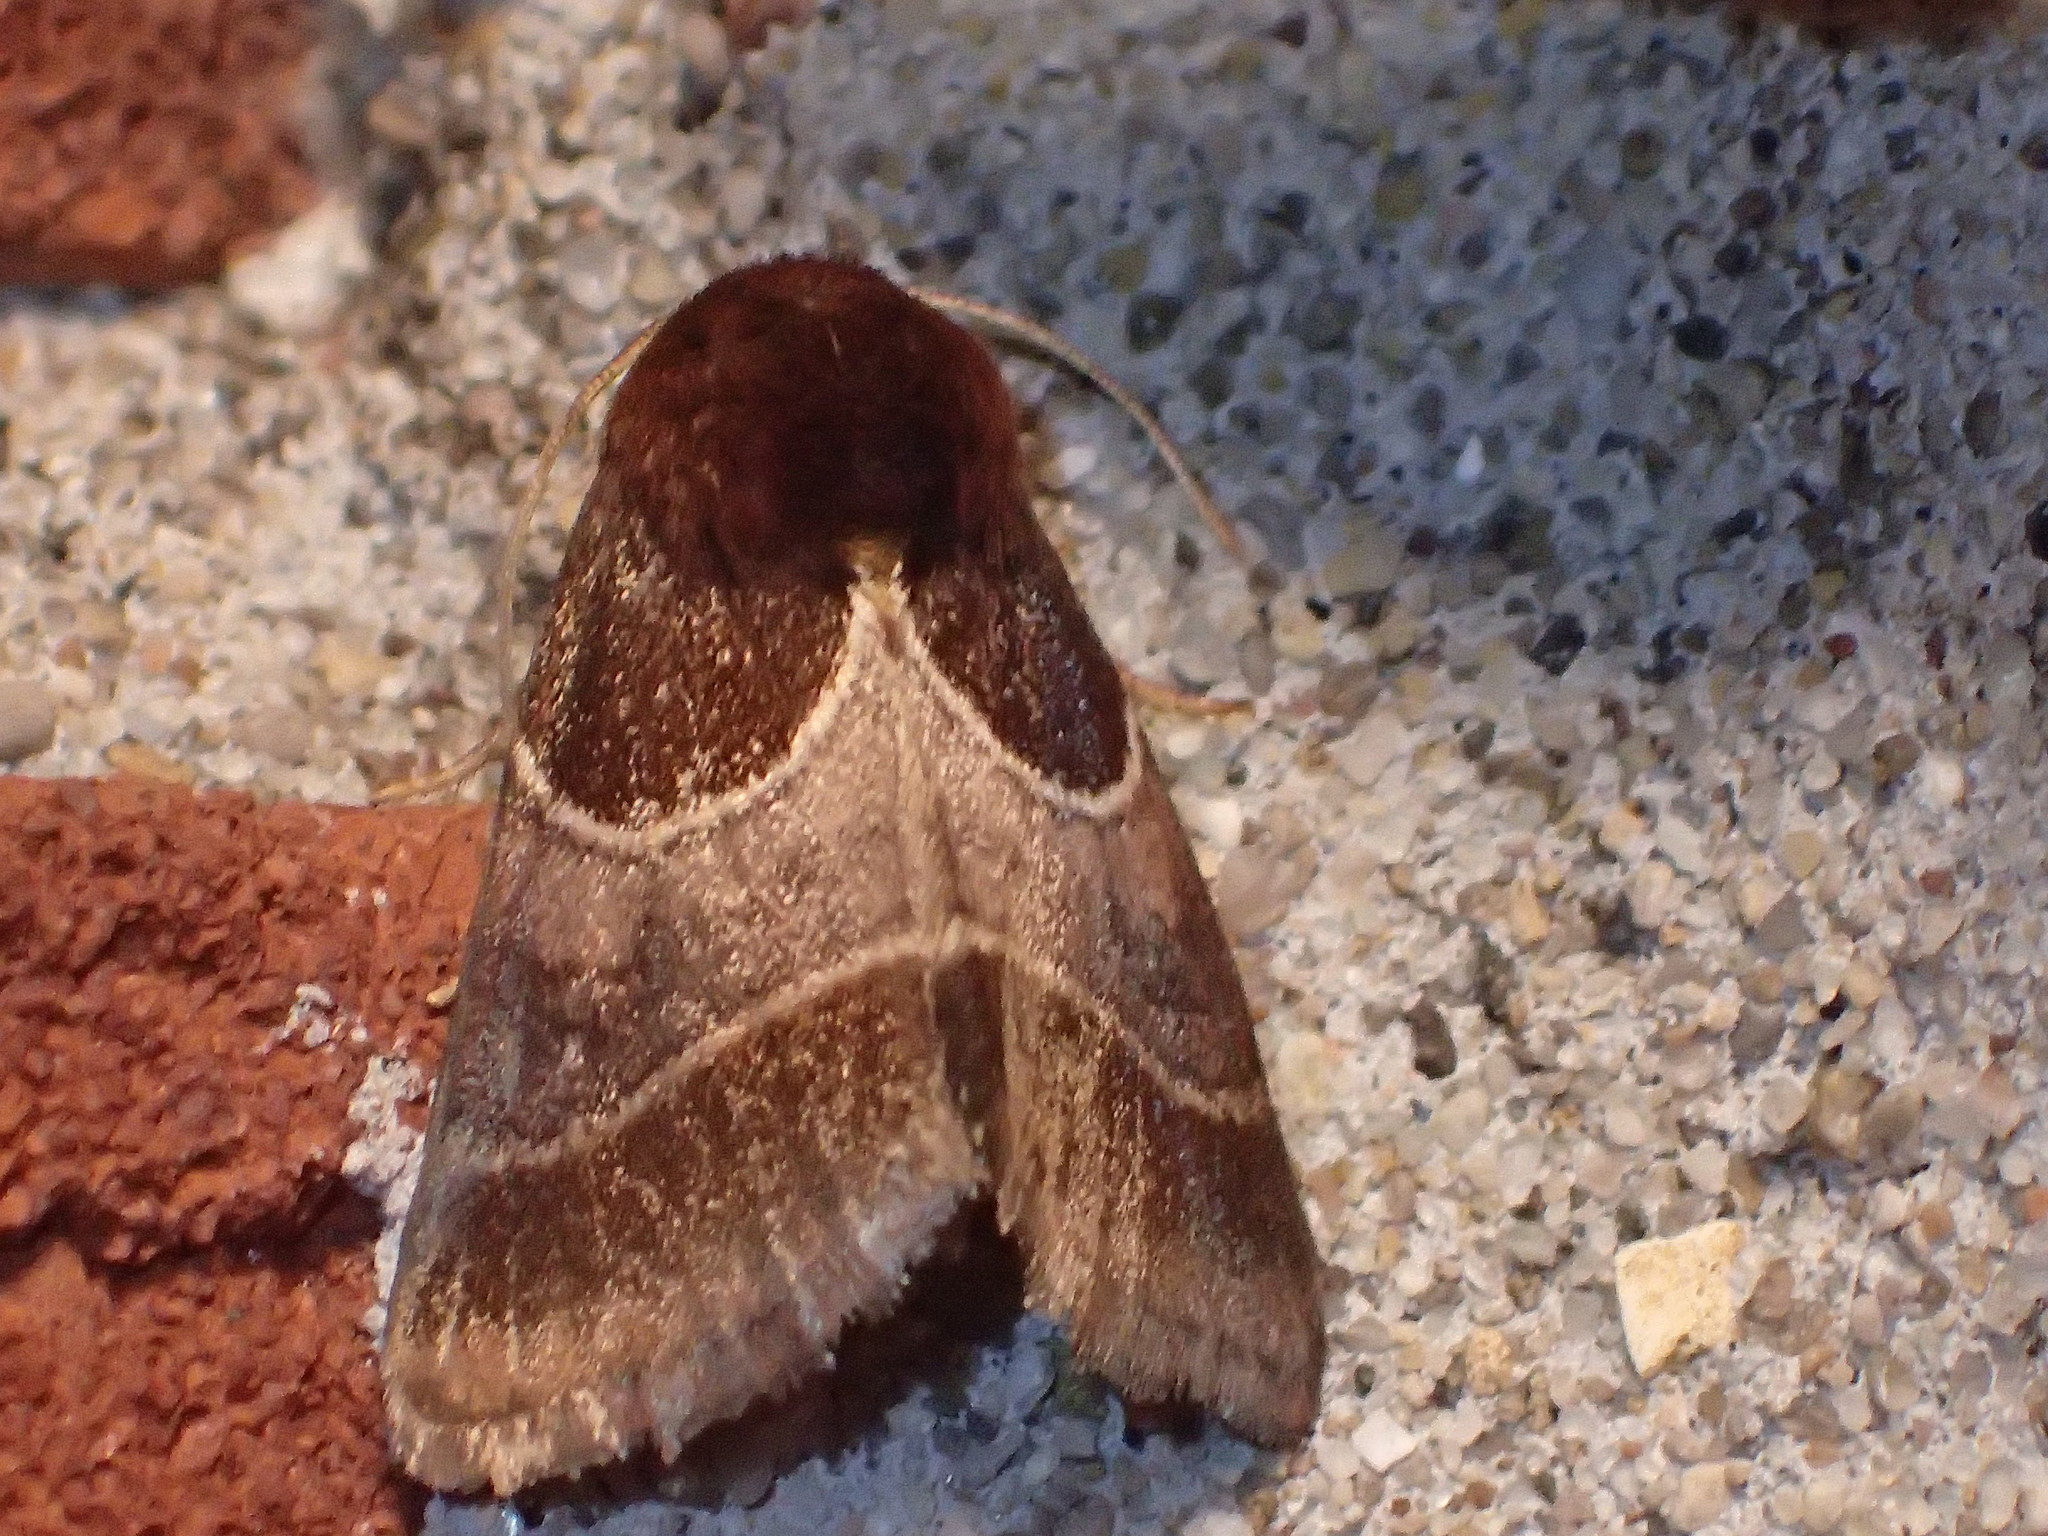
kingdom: Animalia
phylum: Arthropoda
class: Insecta
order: Lepidoptera
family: Noctuidae
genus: Schinia
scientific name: Schinia arcigera
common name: Arcigera flower moth
